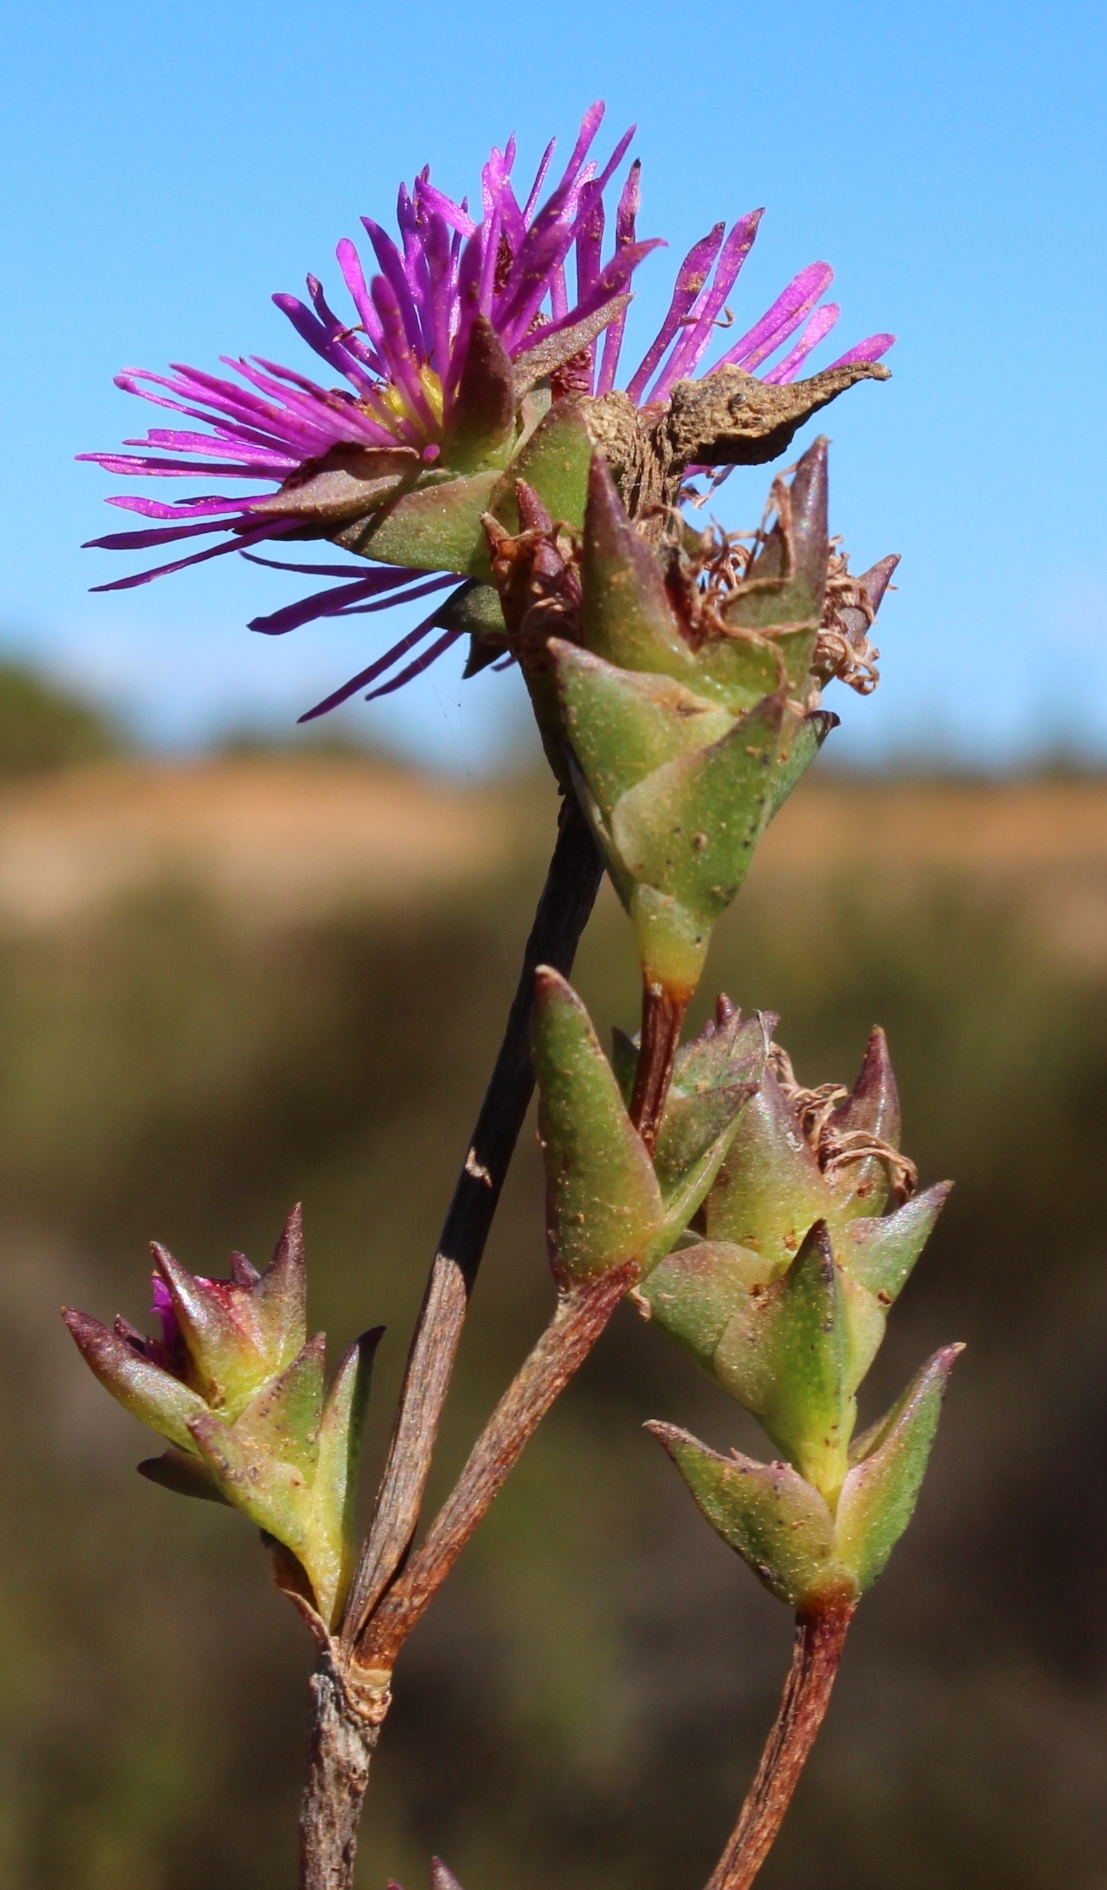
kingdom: Plantae
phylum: Tracheophyta
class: Magnoliopsida
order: Caryophyllales
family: Aizoaceae
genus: Erepsia
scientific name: Erepsia bracteata
